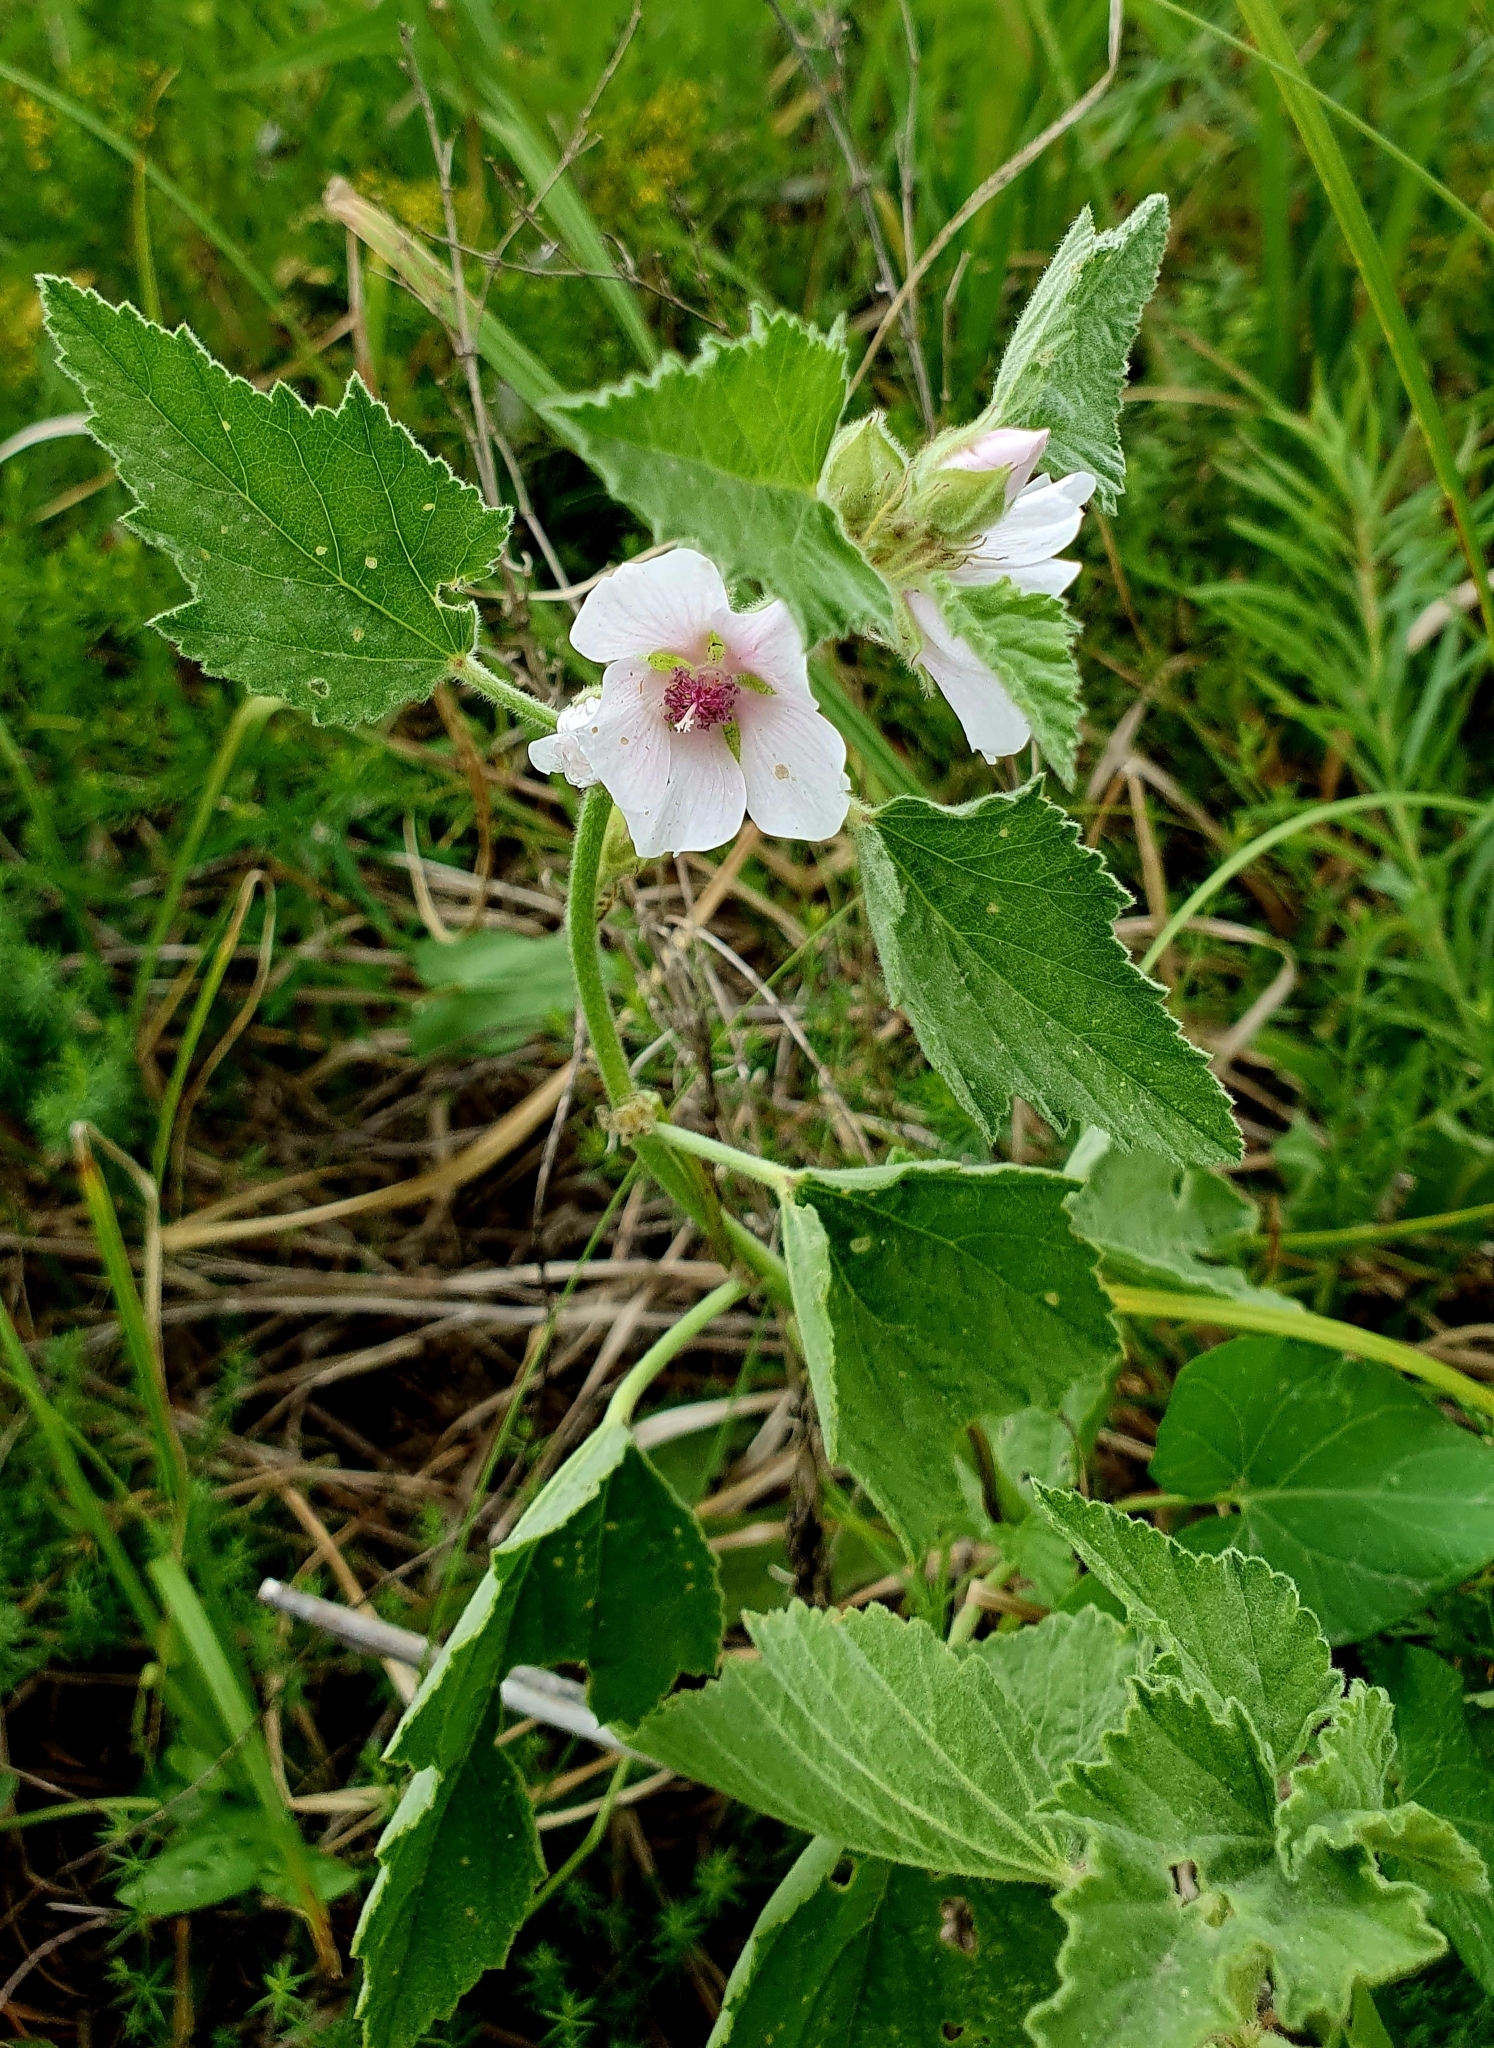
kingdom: Plantae
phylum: Tracheophyta
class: Magnoliopsida
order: Malvales
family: Malvaceae
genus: Althaea
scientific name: Althaea officinalis
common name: Marsh-mallow
